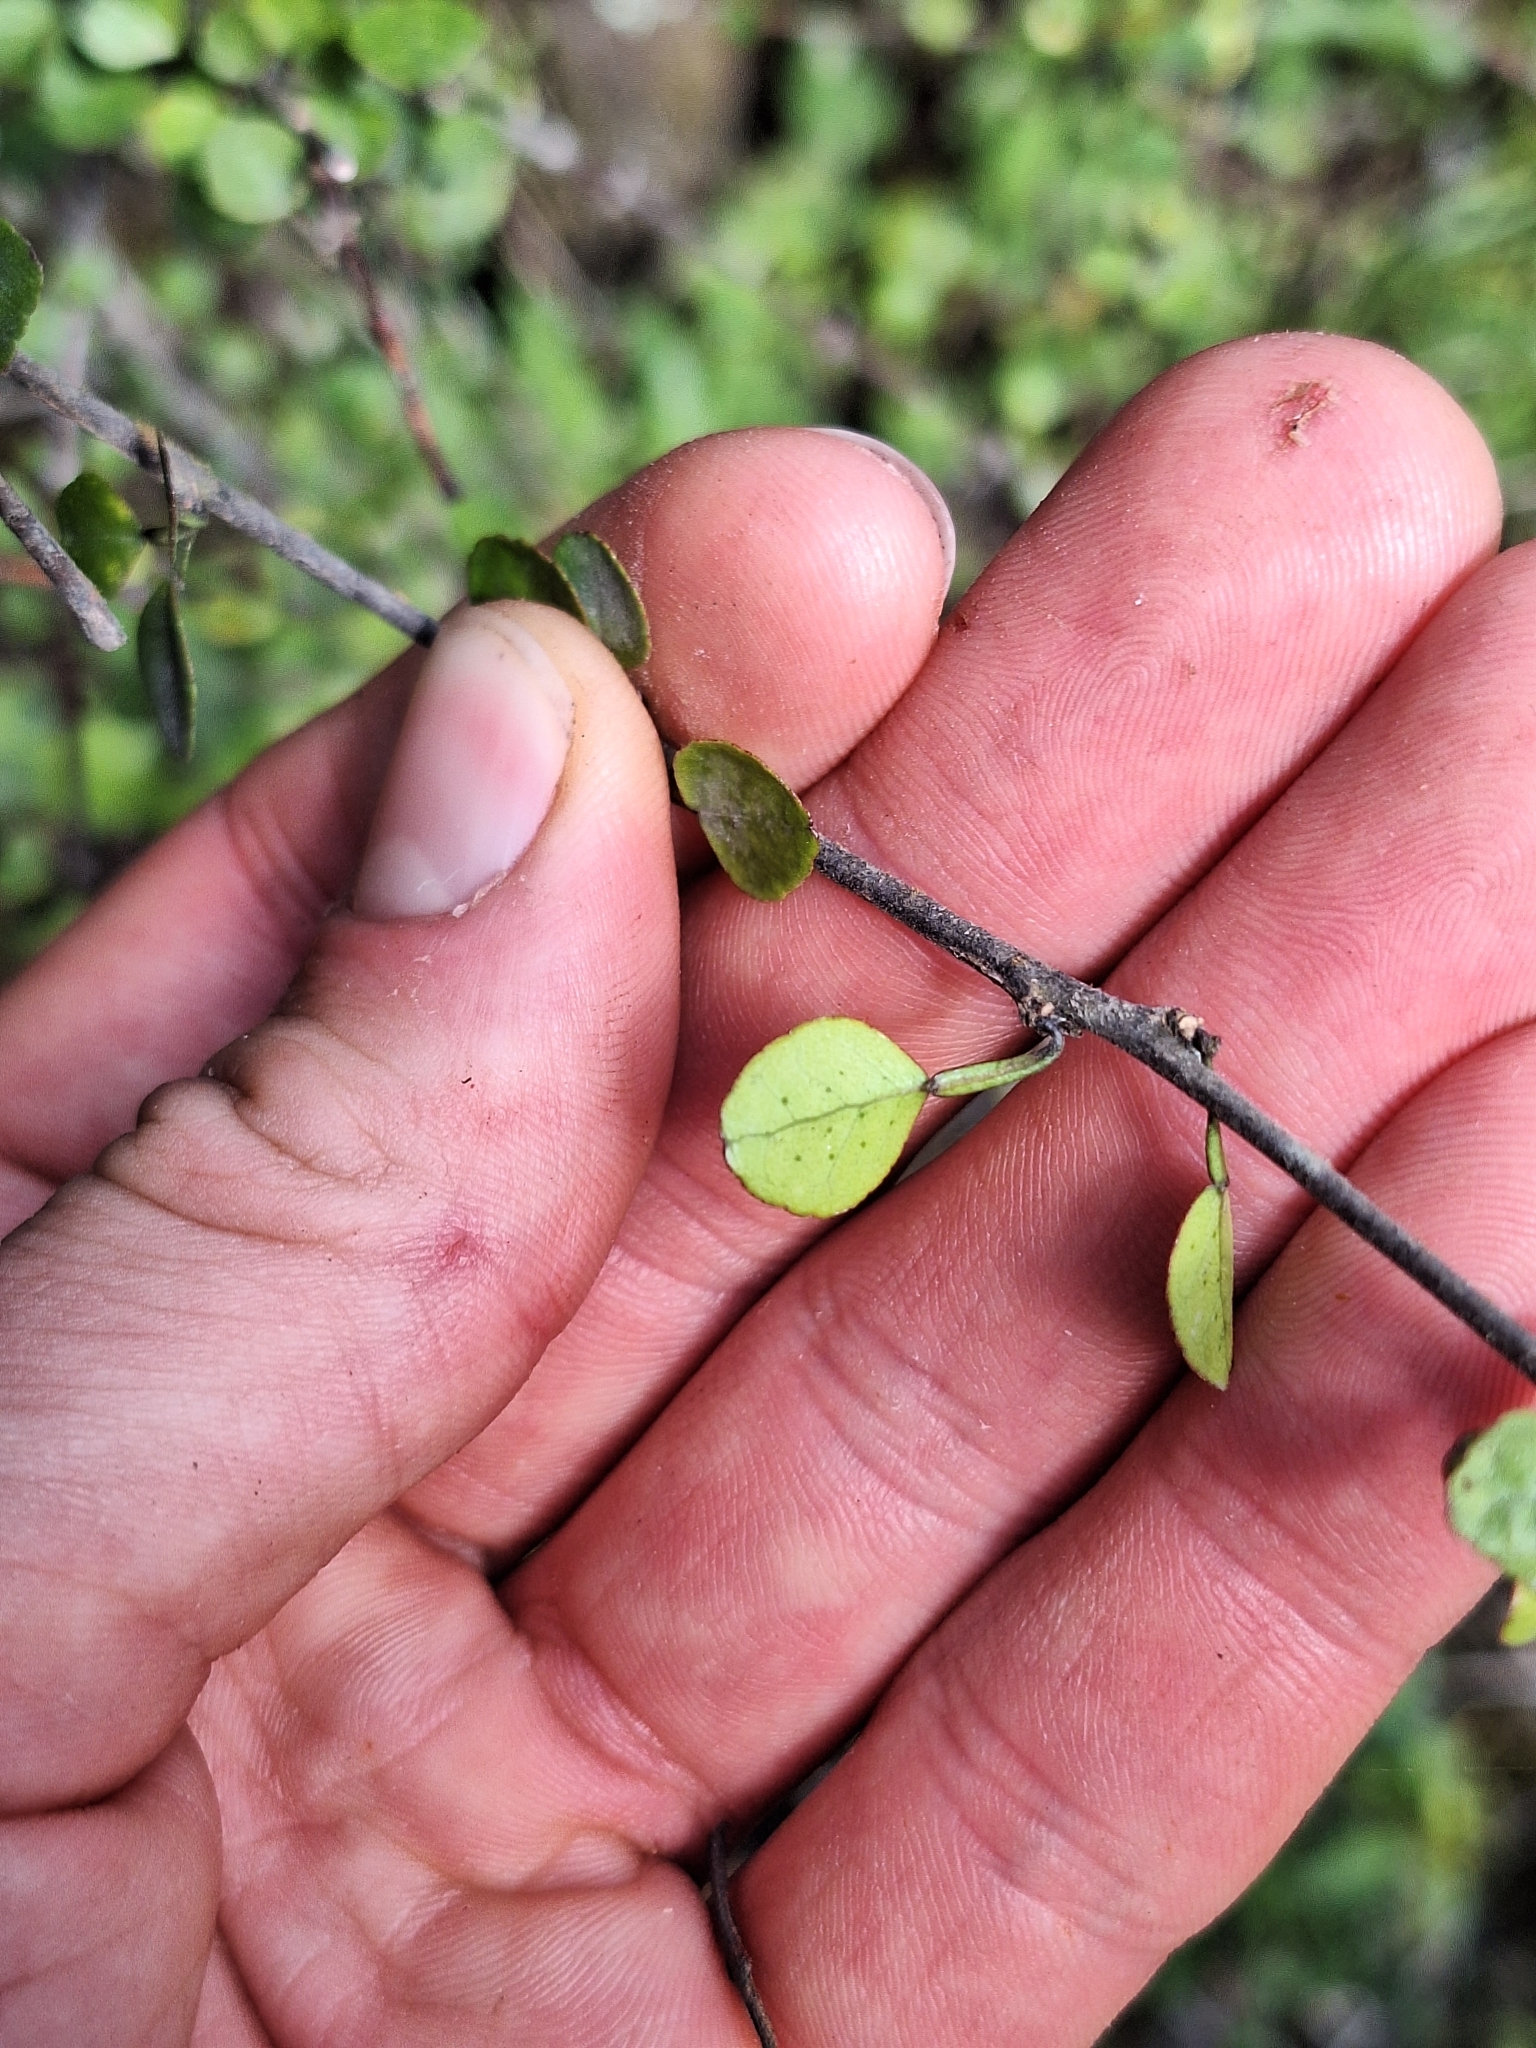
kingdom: Plantae
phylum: Tracheophyta
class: Magnoliopsida
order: Sapindales
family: Rutaceae
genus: Melicope
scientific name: Melicope simplex
